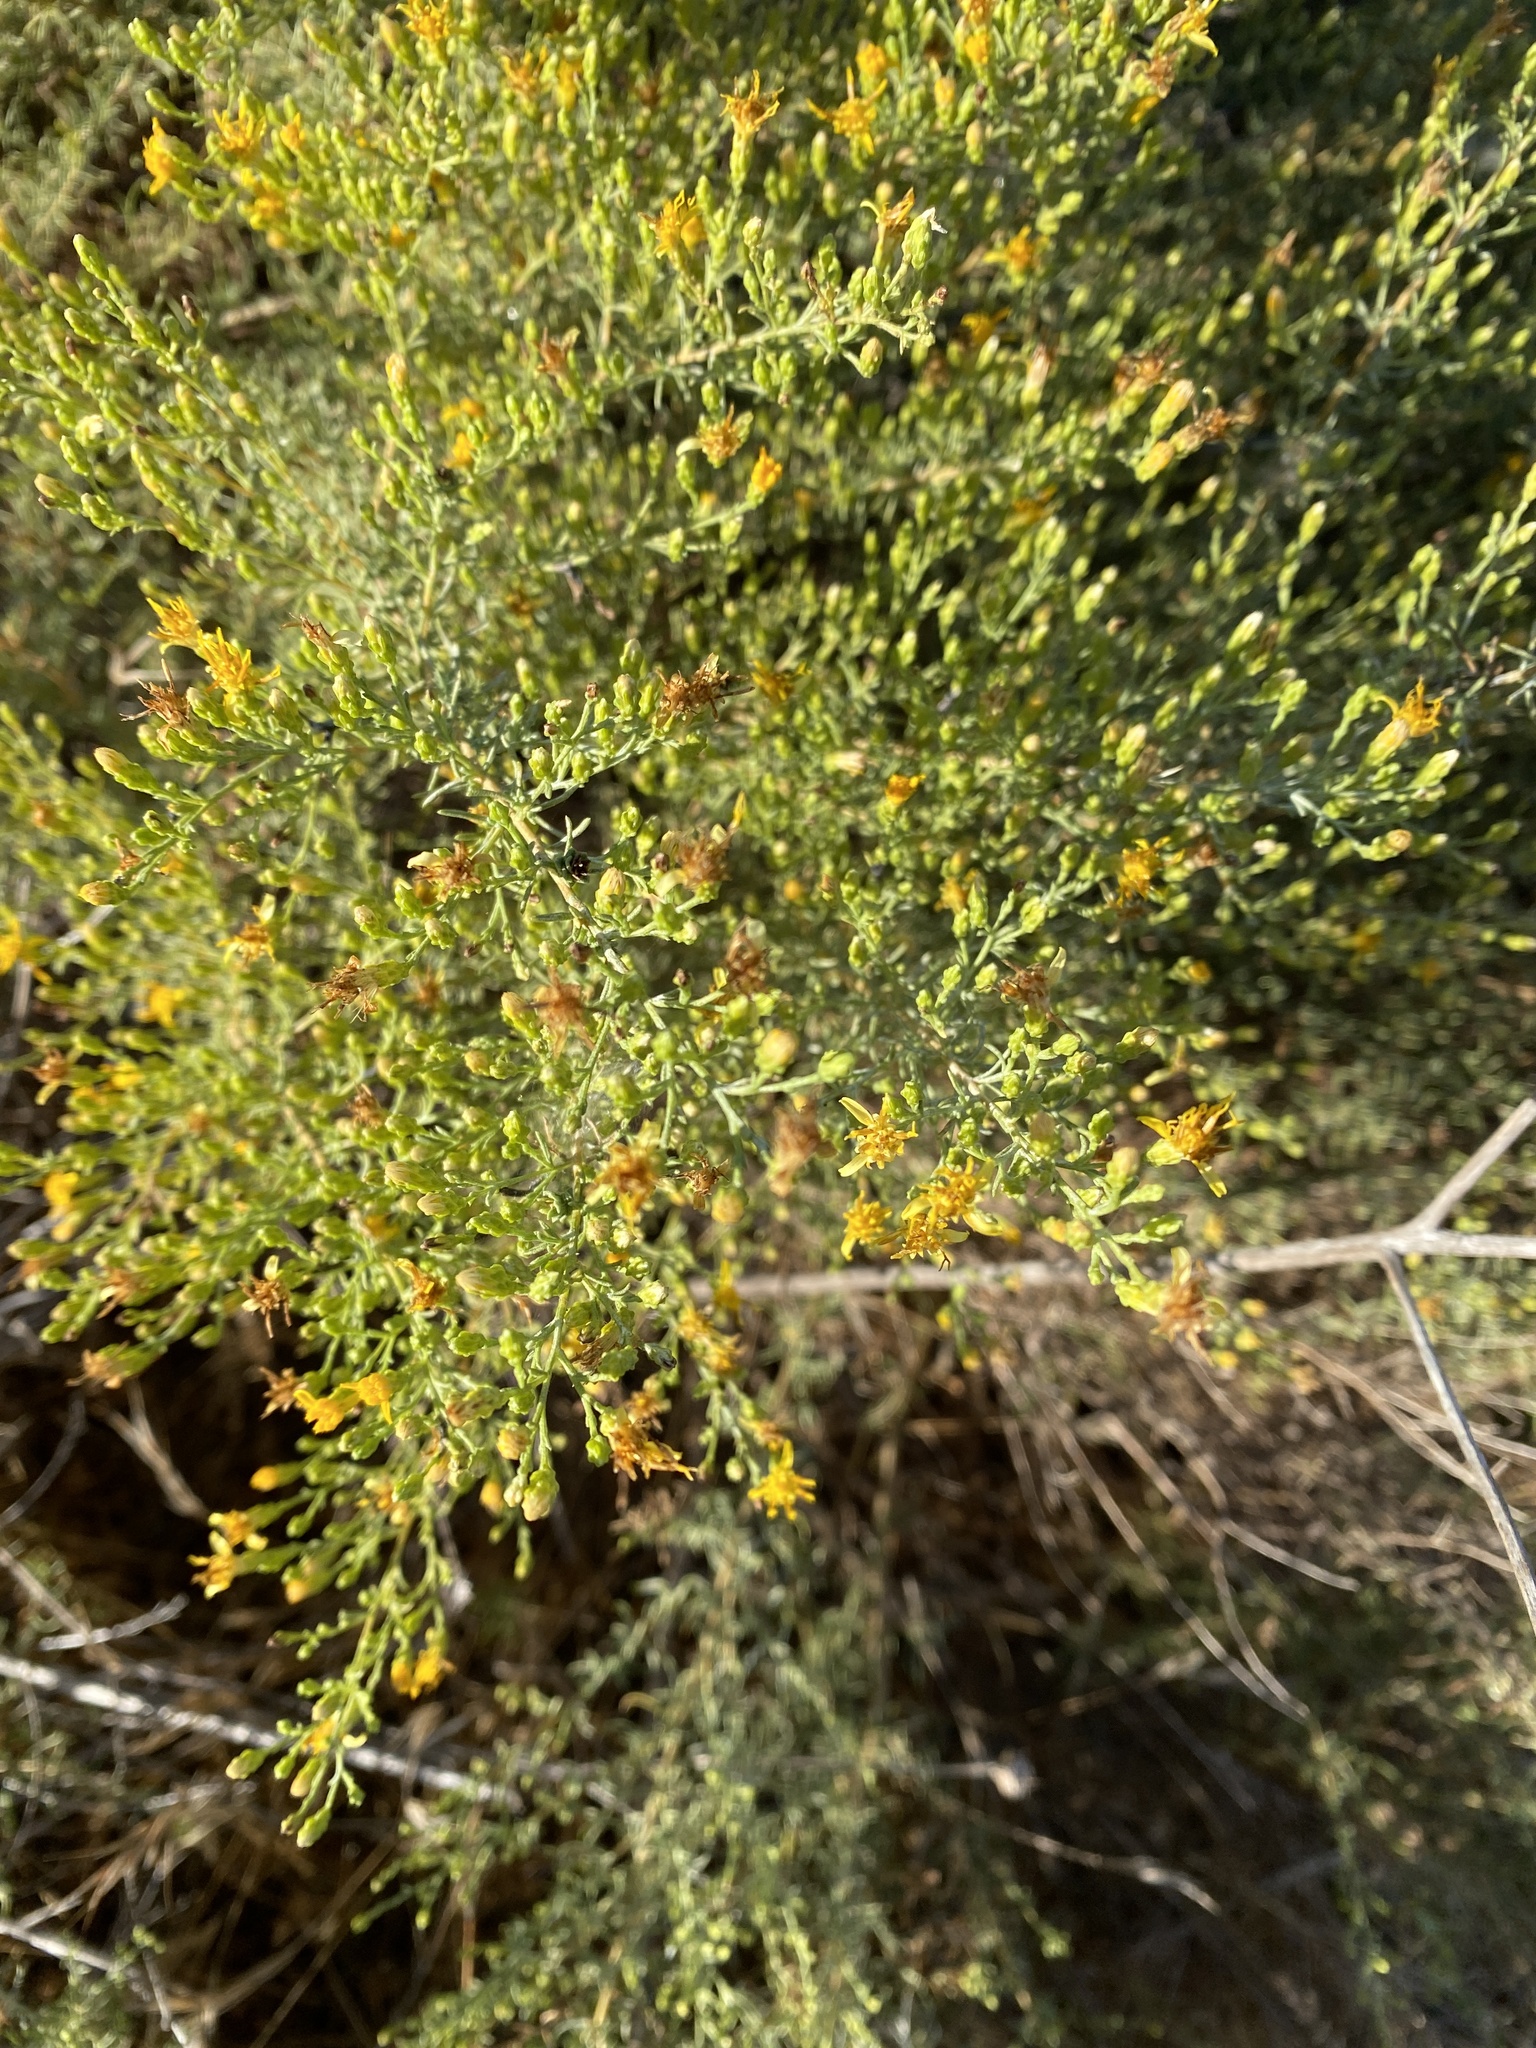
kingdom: Plantae
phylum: Tracheophyta
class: Magnoliopsida
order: Asterales
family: Asteraceae
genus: Ericameria
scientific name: Ericameria palmeri
